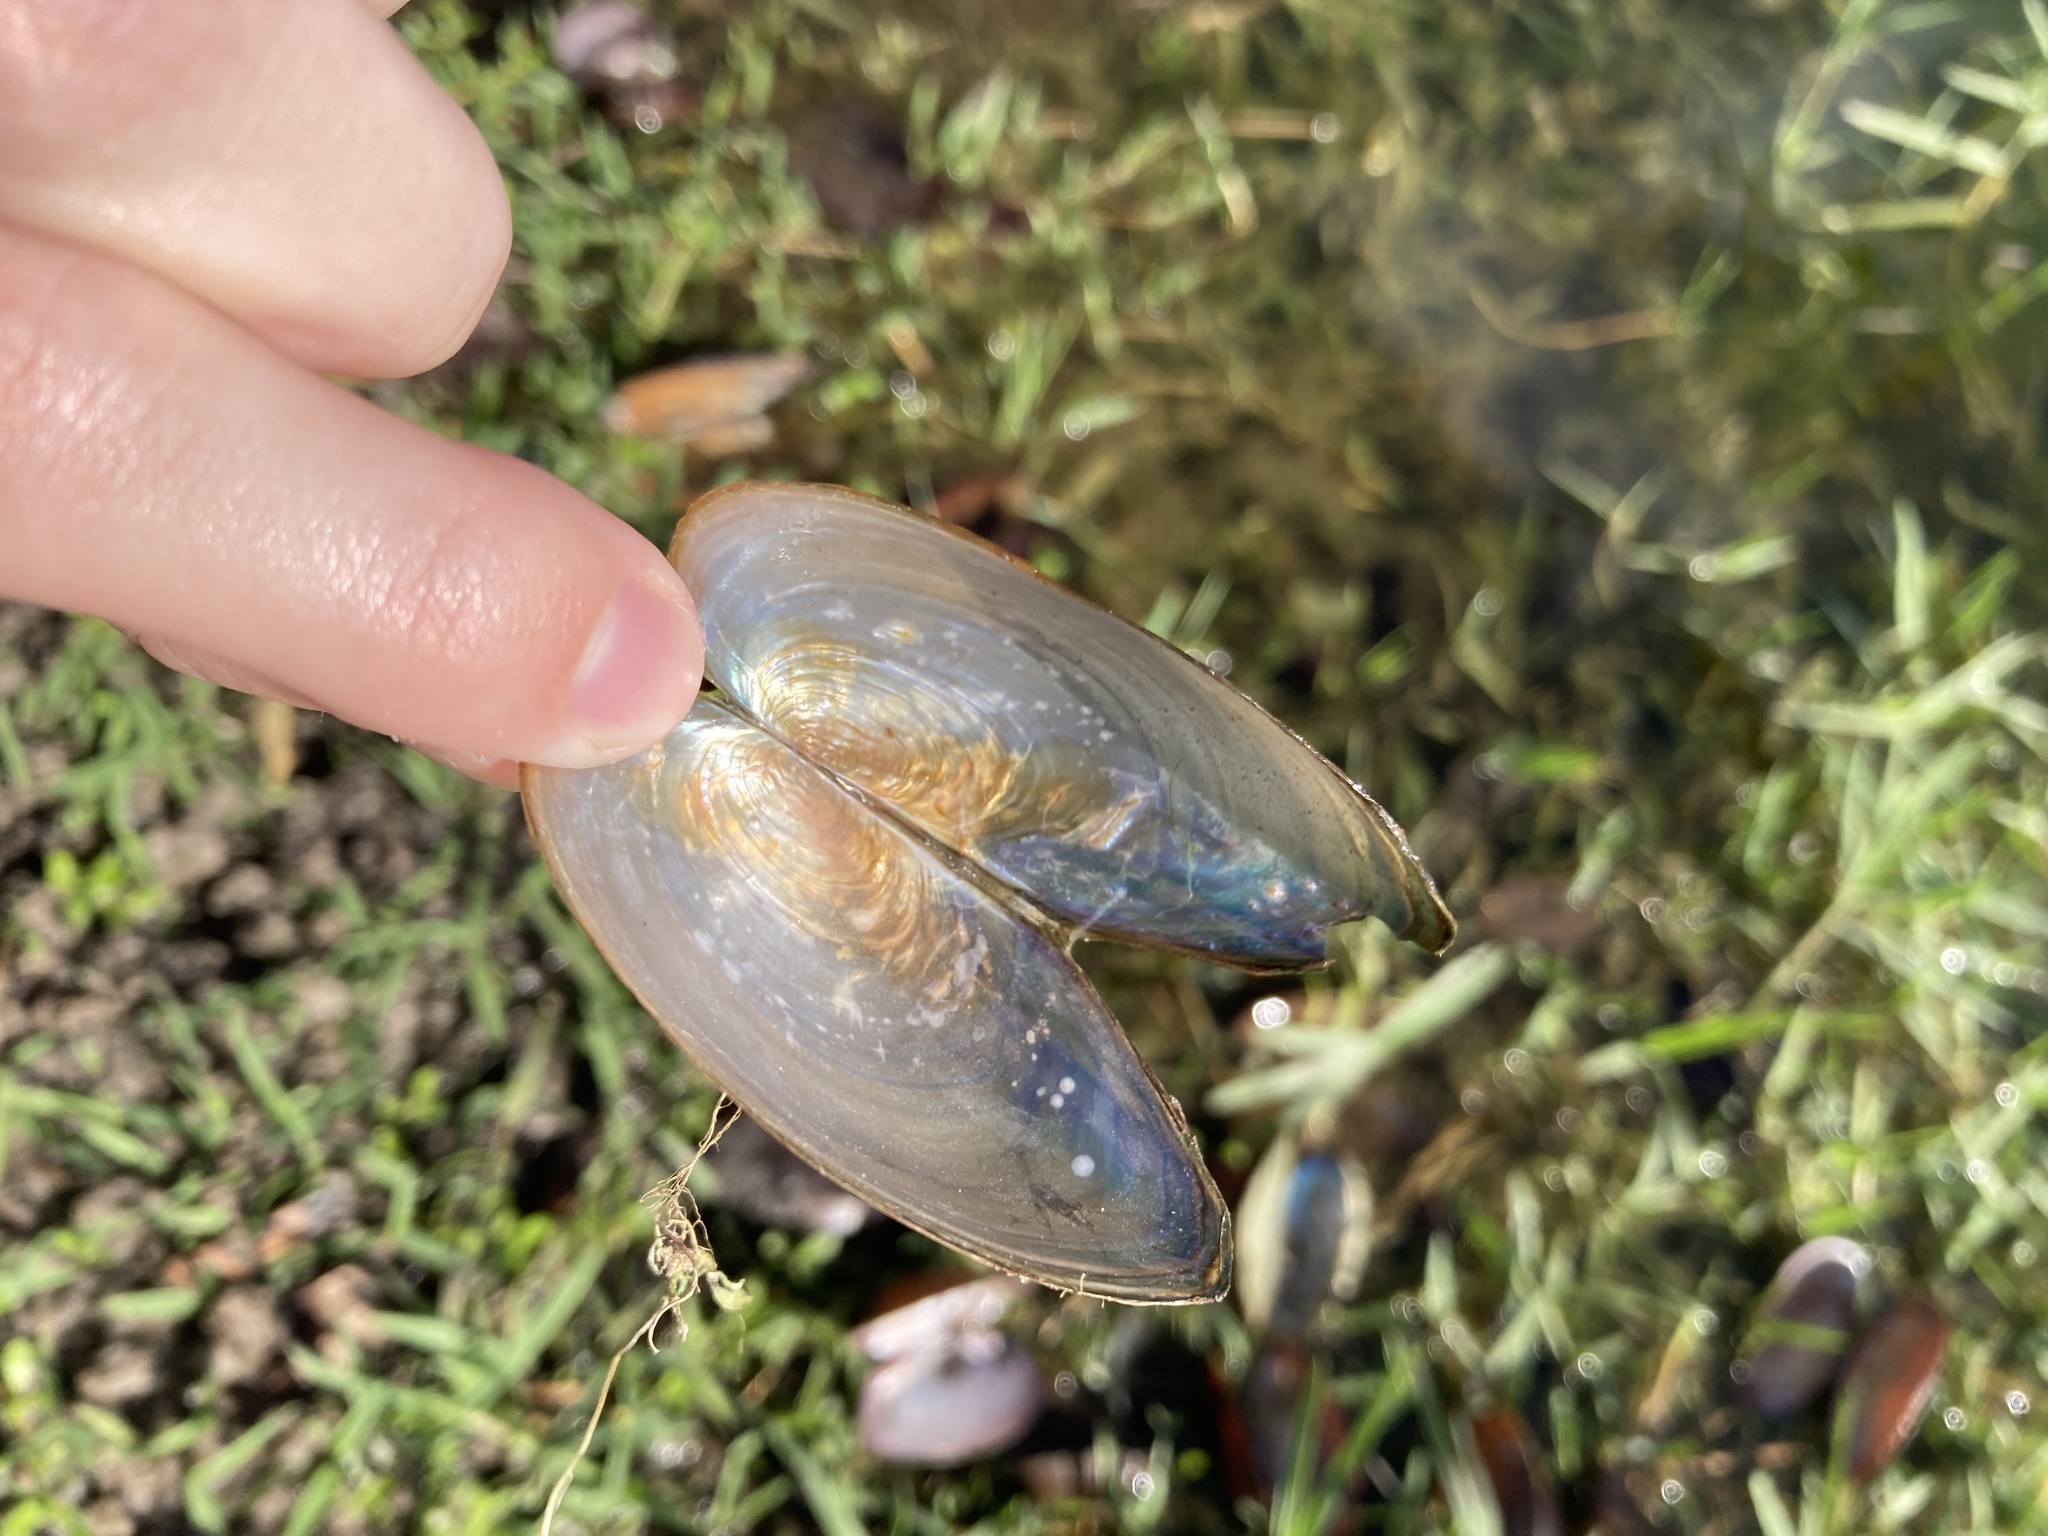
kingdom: Animalia
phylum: Mollusca
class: Bivalvia
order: Unionida
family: Unionidae
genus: Utterbackia
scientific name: Utterbackia imbecillis
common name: Paper pondshell
